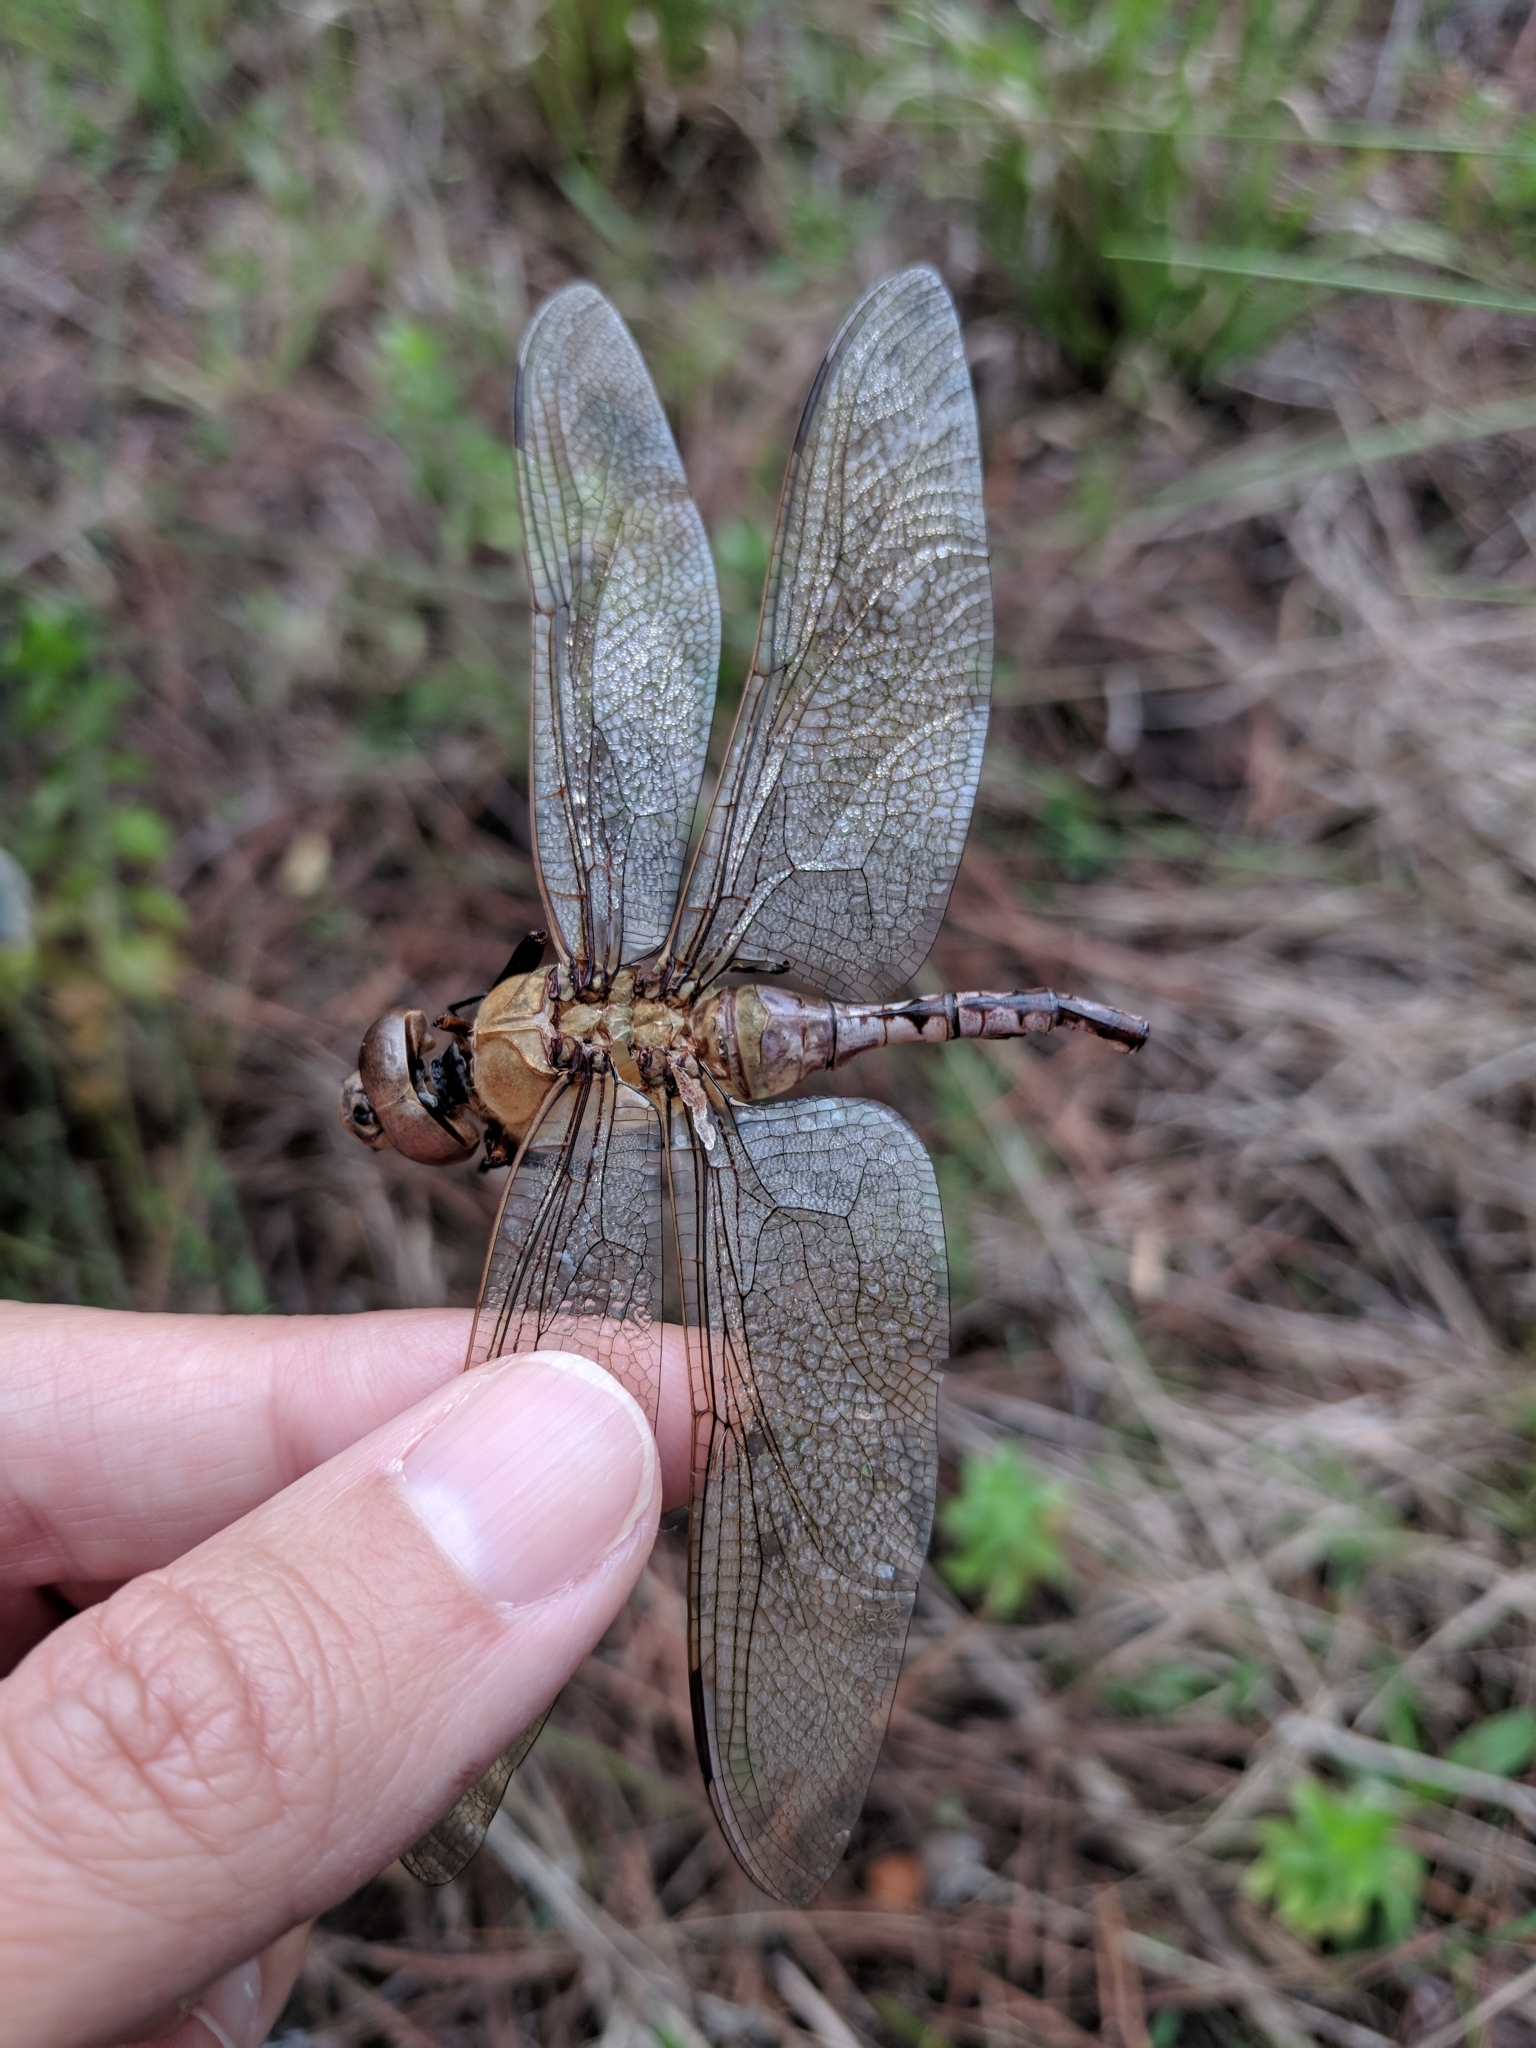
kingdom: Animalia
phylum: Arthropoda
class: Insecta
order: Odonata
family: Aeshnidae
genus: Anax
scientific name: Anax junius
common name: Common green darner
